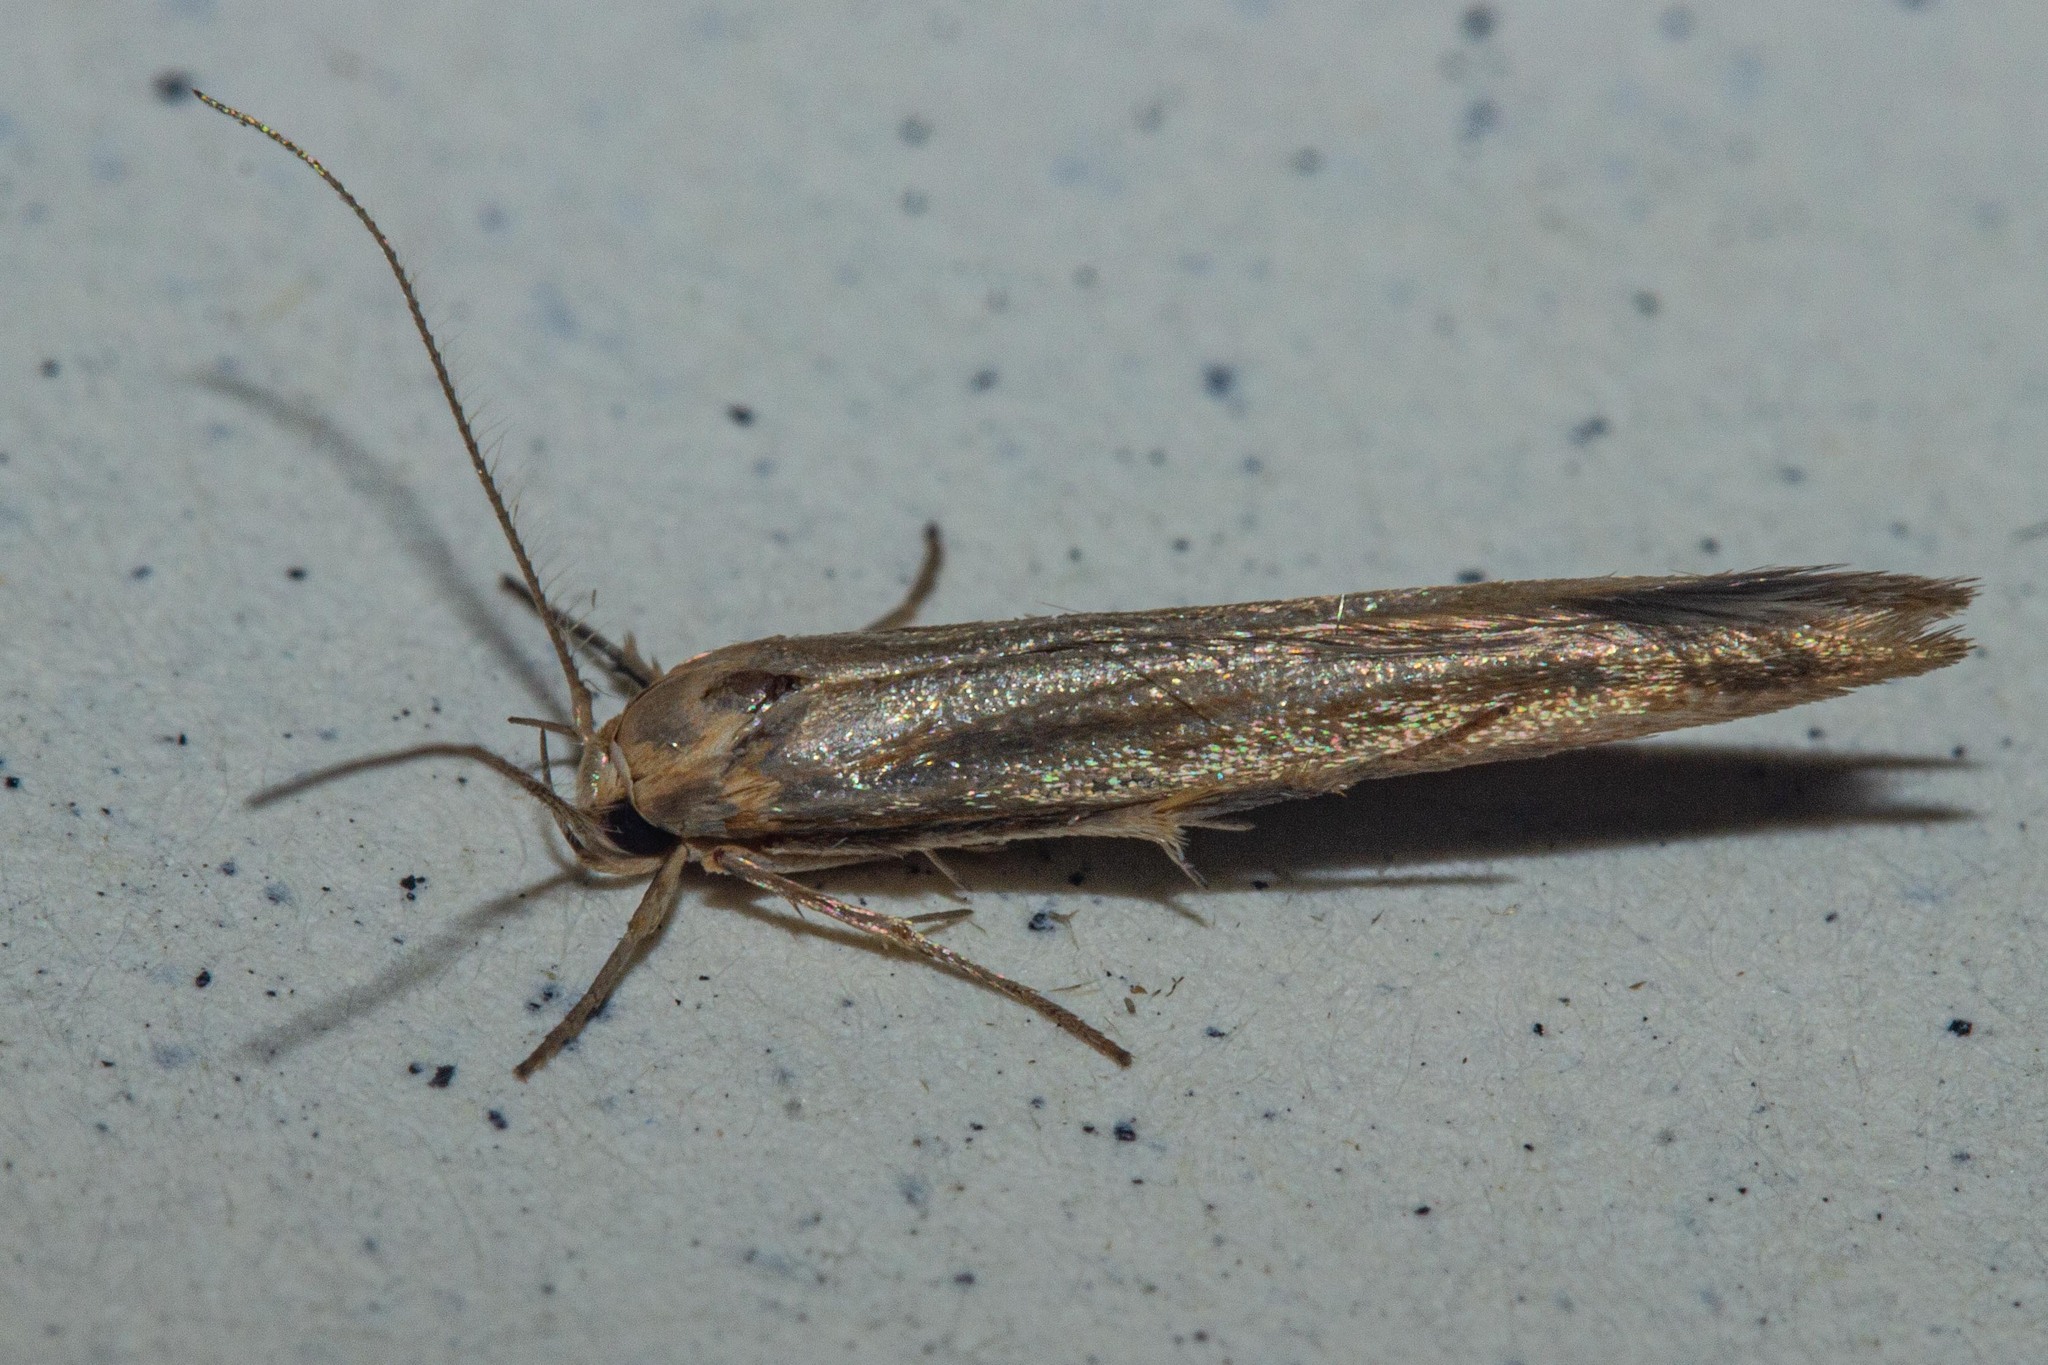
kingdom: Animalia
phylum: Arthropoda
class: Insecta
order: Lepidoptera
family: Stathmopodidae
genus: Stathmopoda
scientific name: Stathmopoda aposema
